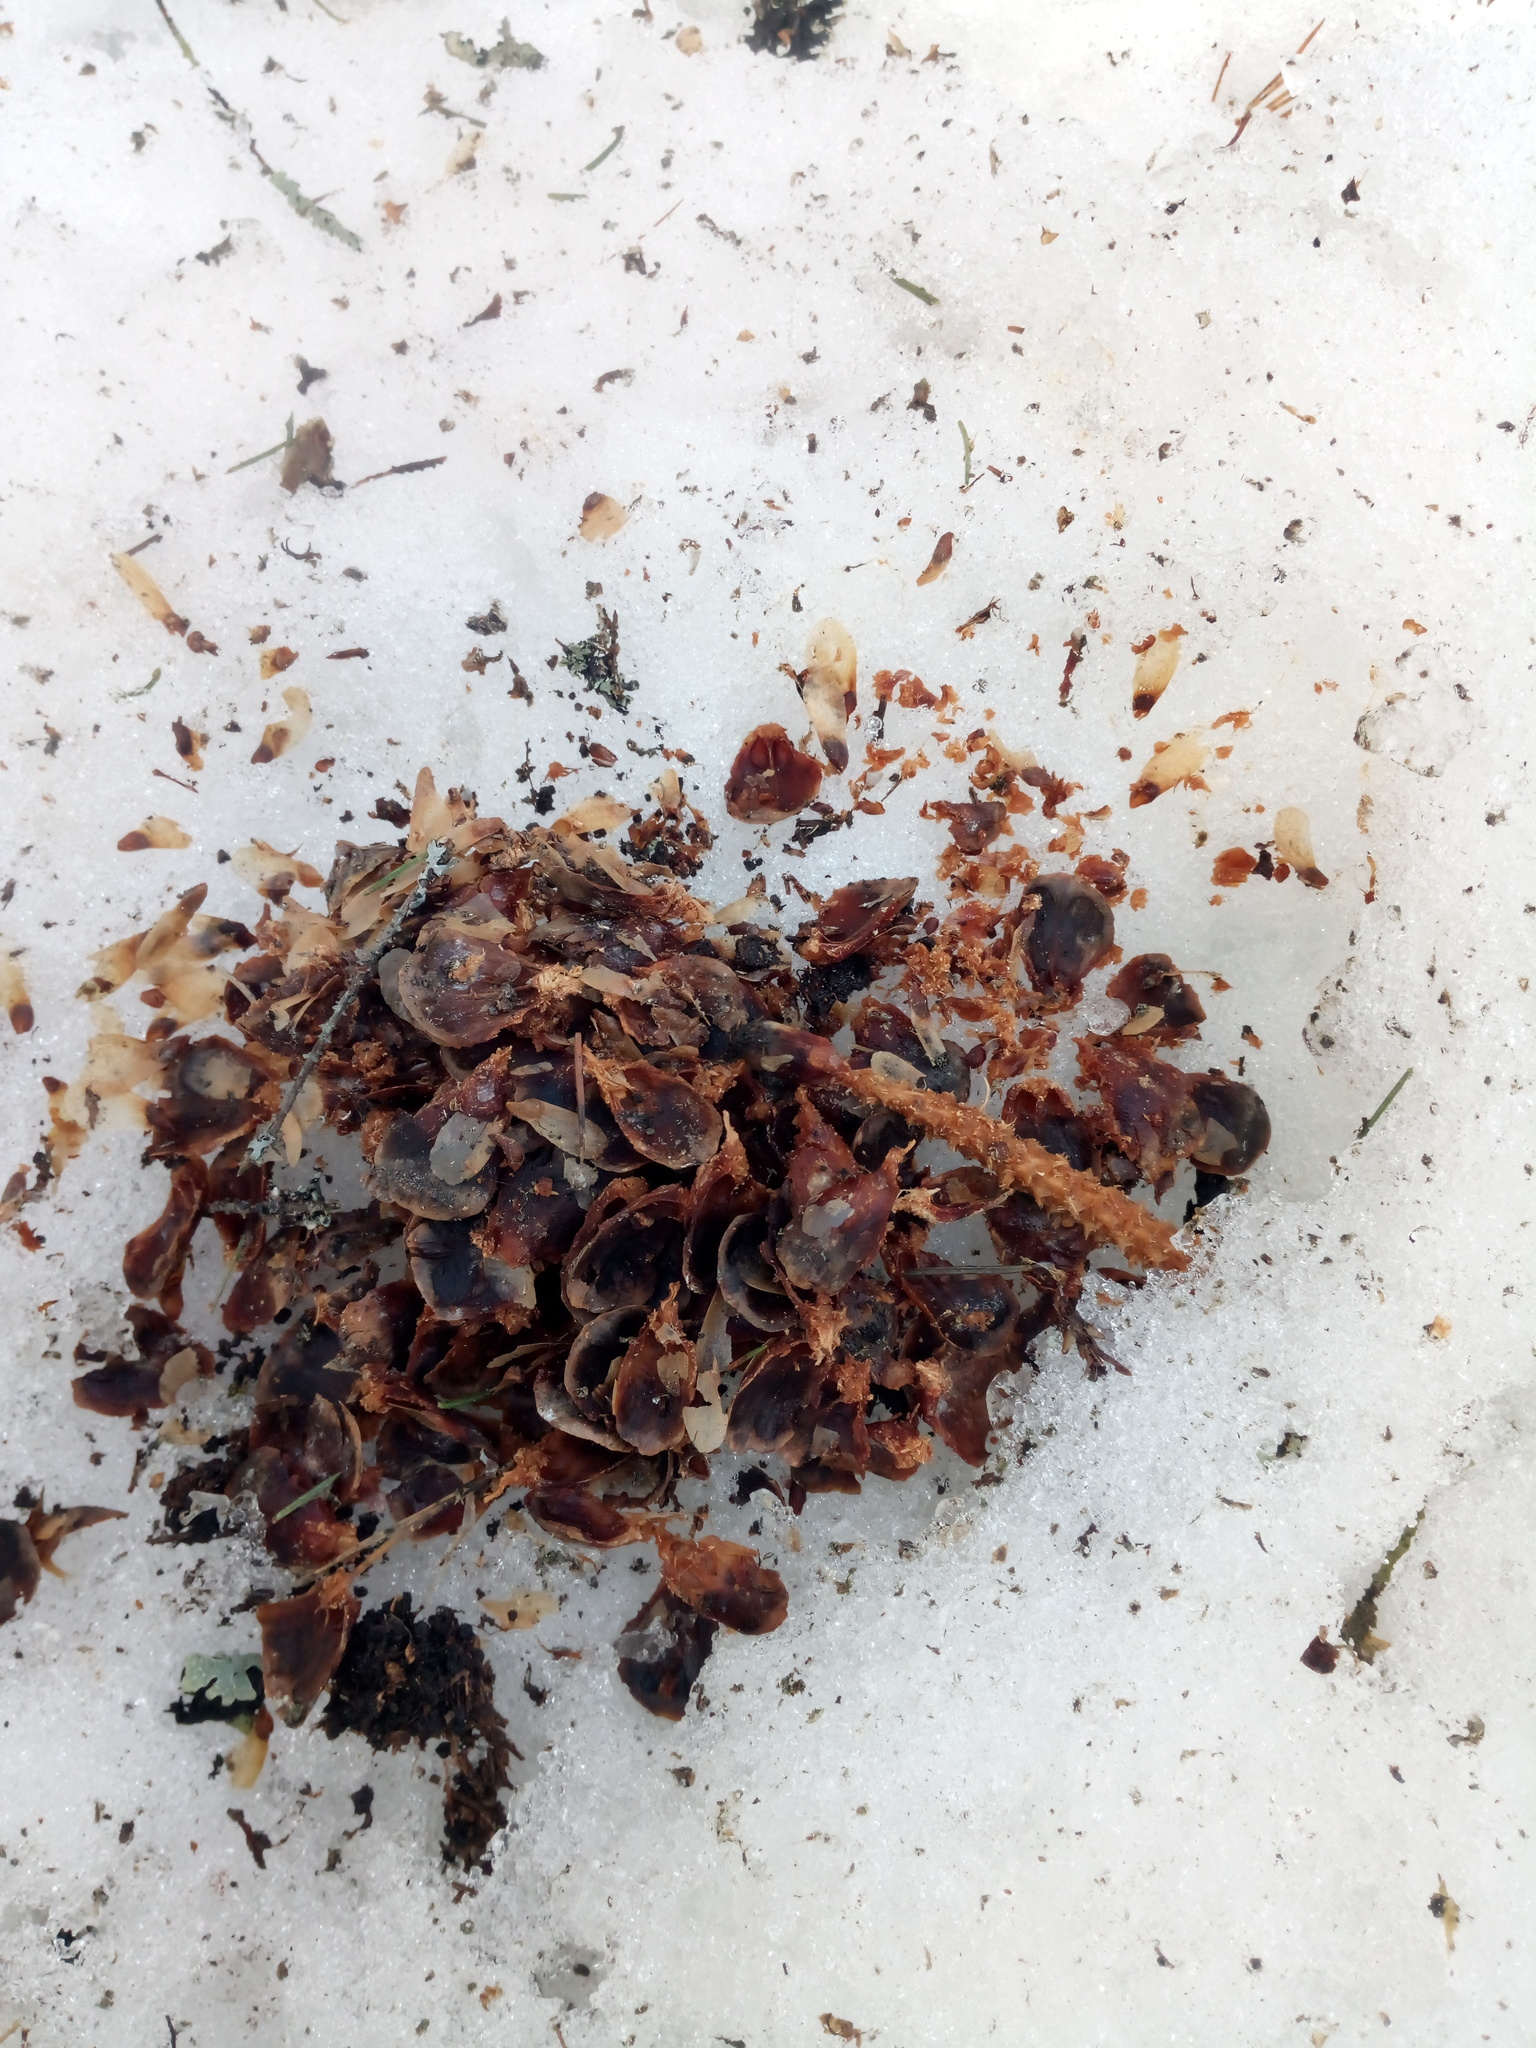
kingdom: Animalia
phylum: Chordata
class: Mammalia
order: Rodentia
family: Sciuridae
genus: Sciurus
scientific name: Sciurus vulgaris
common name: Eurasian red squirrel
